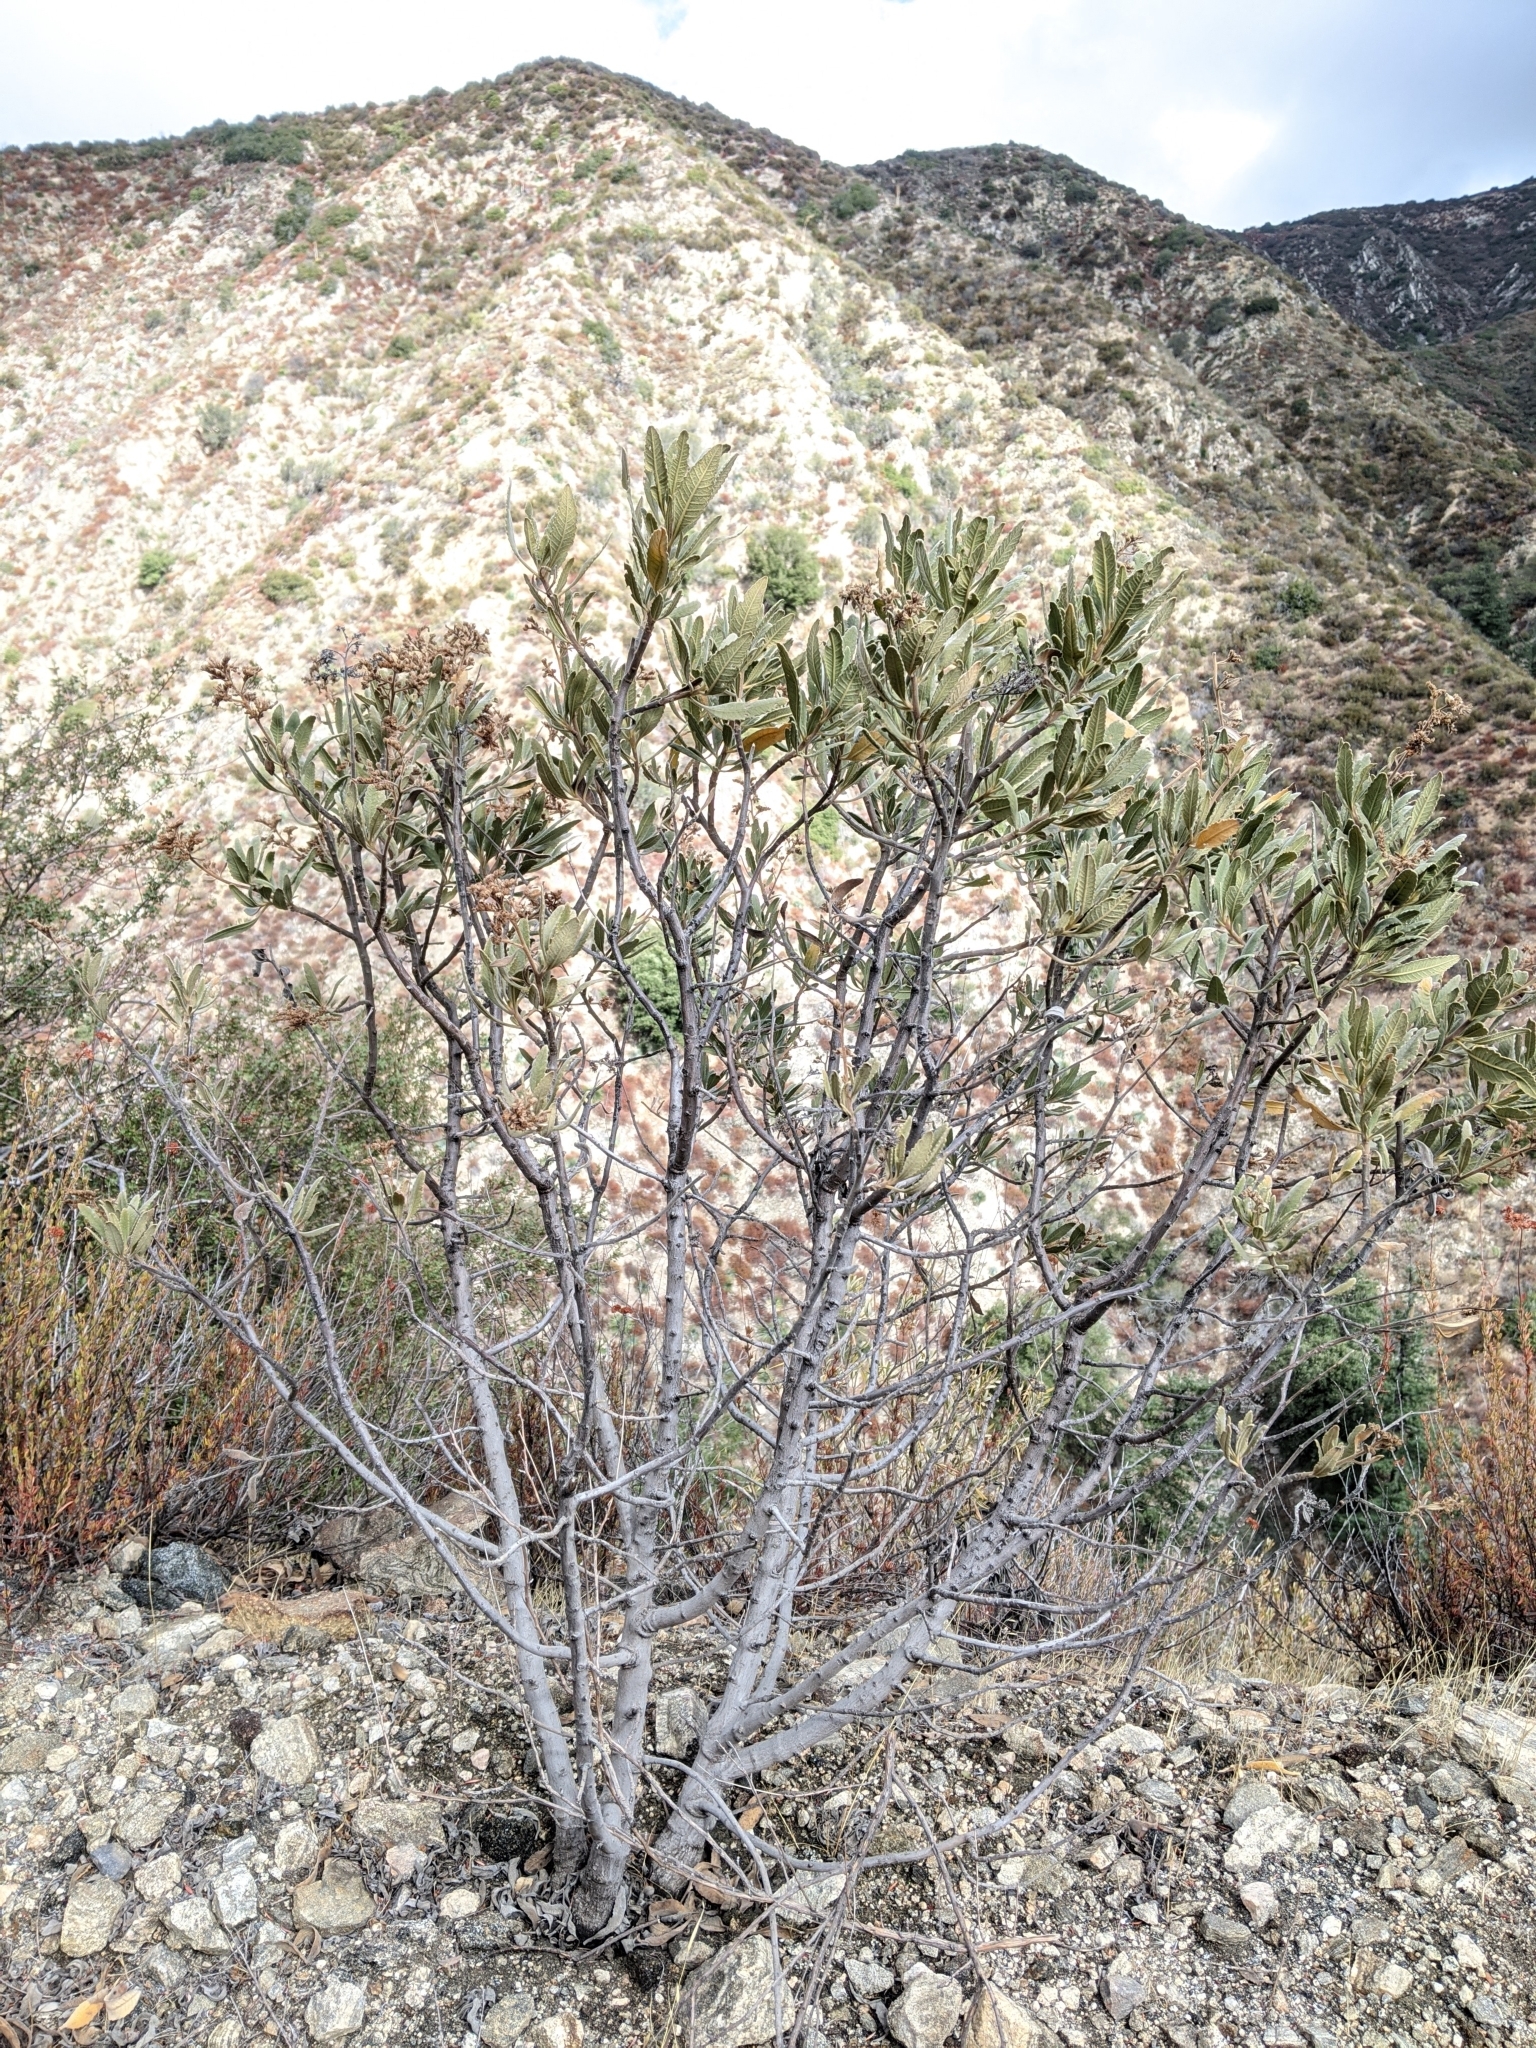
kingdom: Plantae
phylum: Tracheophyta
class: Magnoliopsida
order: Boraginales
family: Namaceae
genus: Eriodictyon
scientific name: Eriodictyon crassifolium
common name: Thick-leaf yerba-santa
